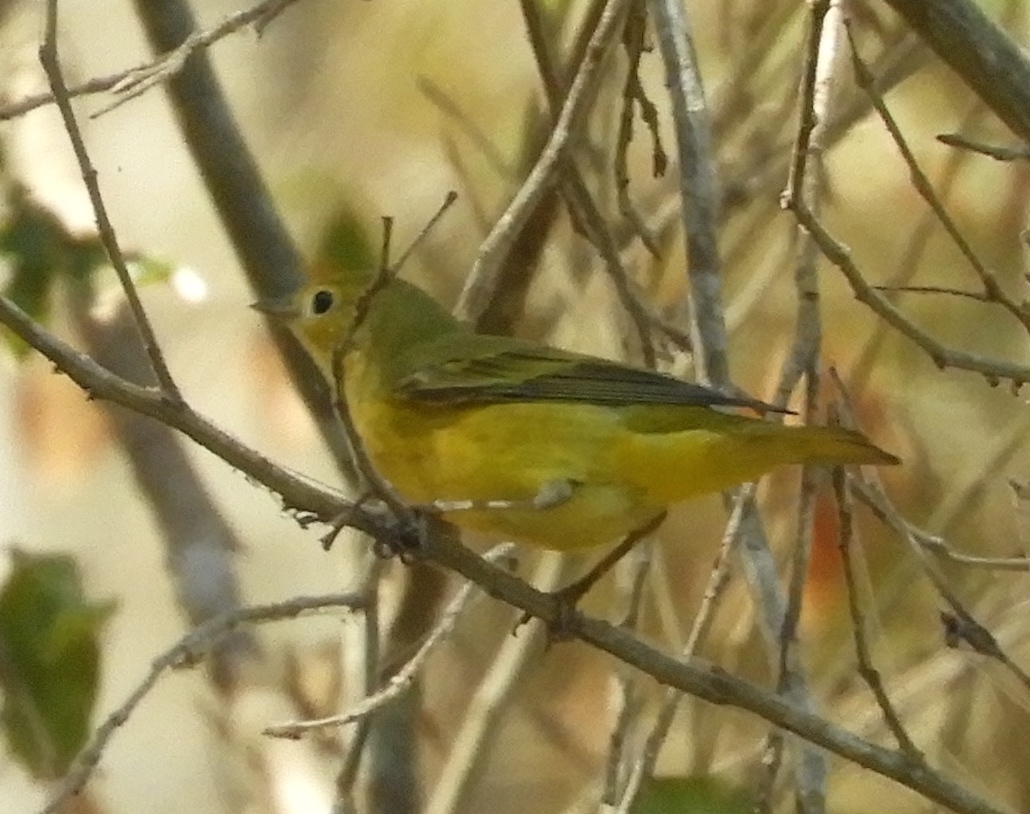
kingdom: Animalia
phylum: Chordata
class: Aves
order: Passeriformes
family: Parulidae
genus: Setophaga
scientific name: Setophaga petechia
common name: Yellow warbler
